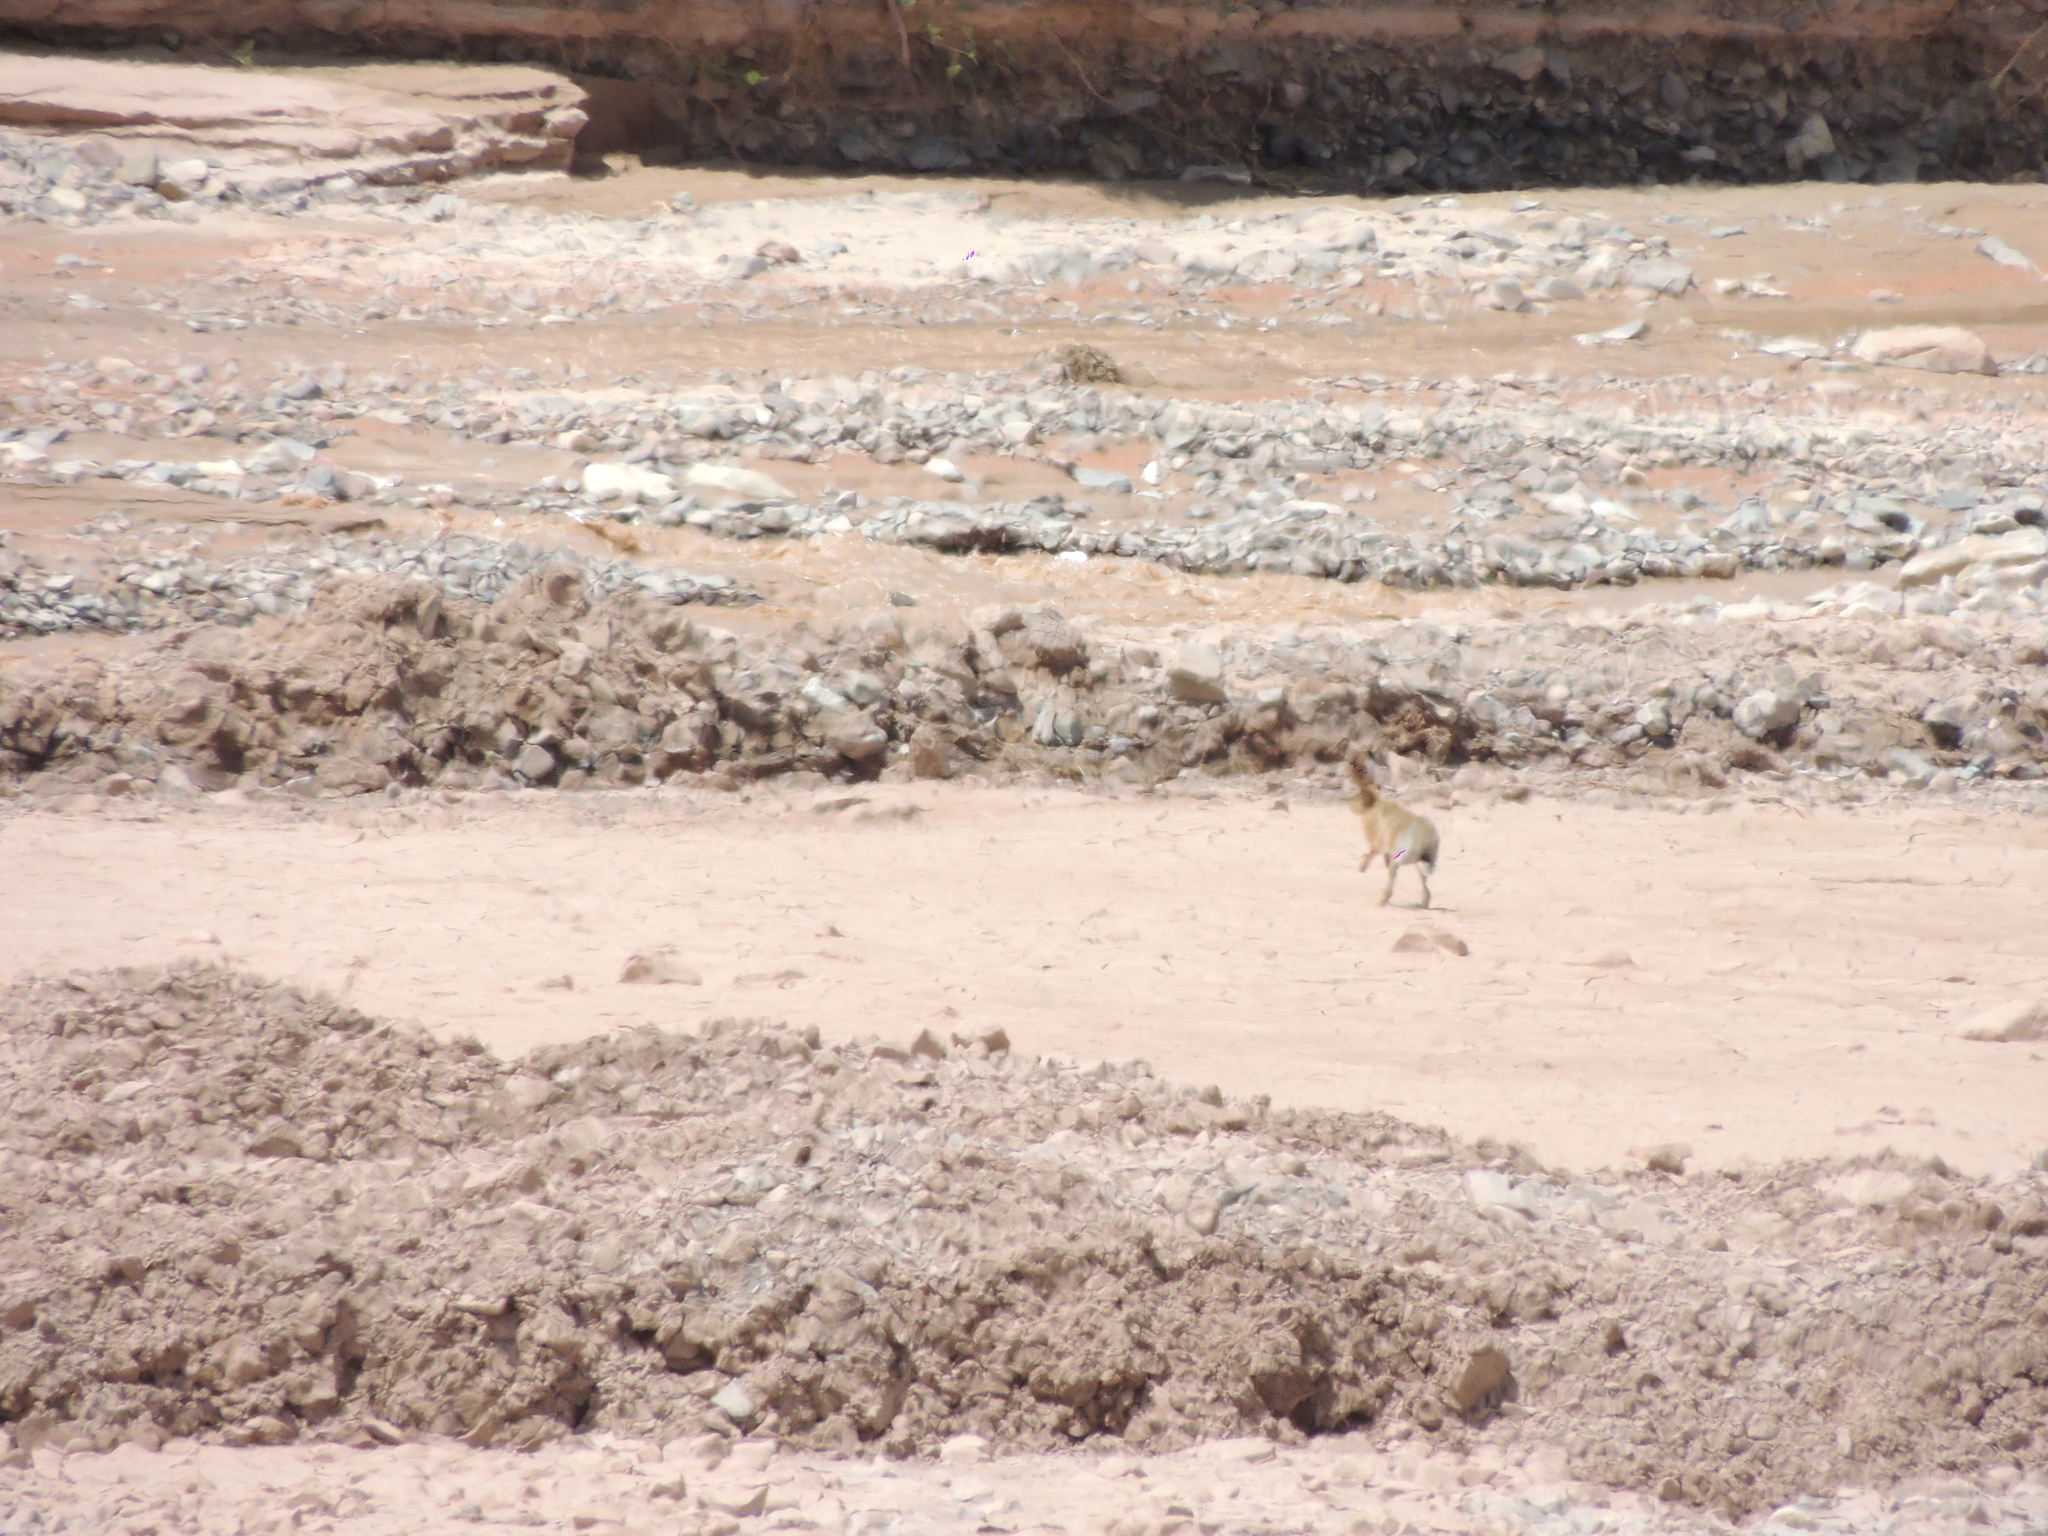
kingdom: Animalia
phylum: Chordata
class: Mammalia
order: Lagomorpha
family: Leporidae
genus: Lepus
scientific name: Lepus europaeus
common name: European hare
